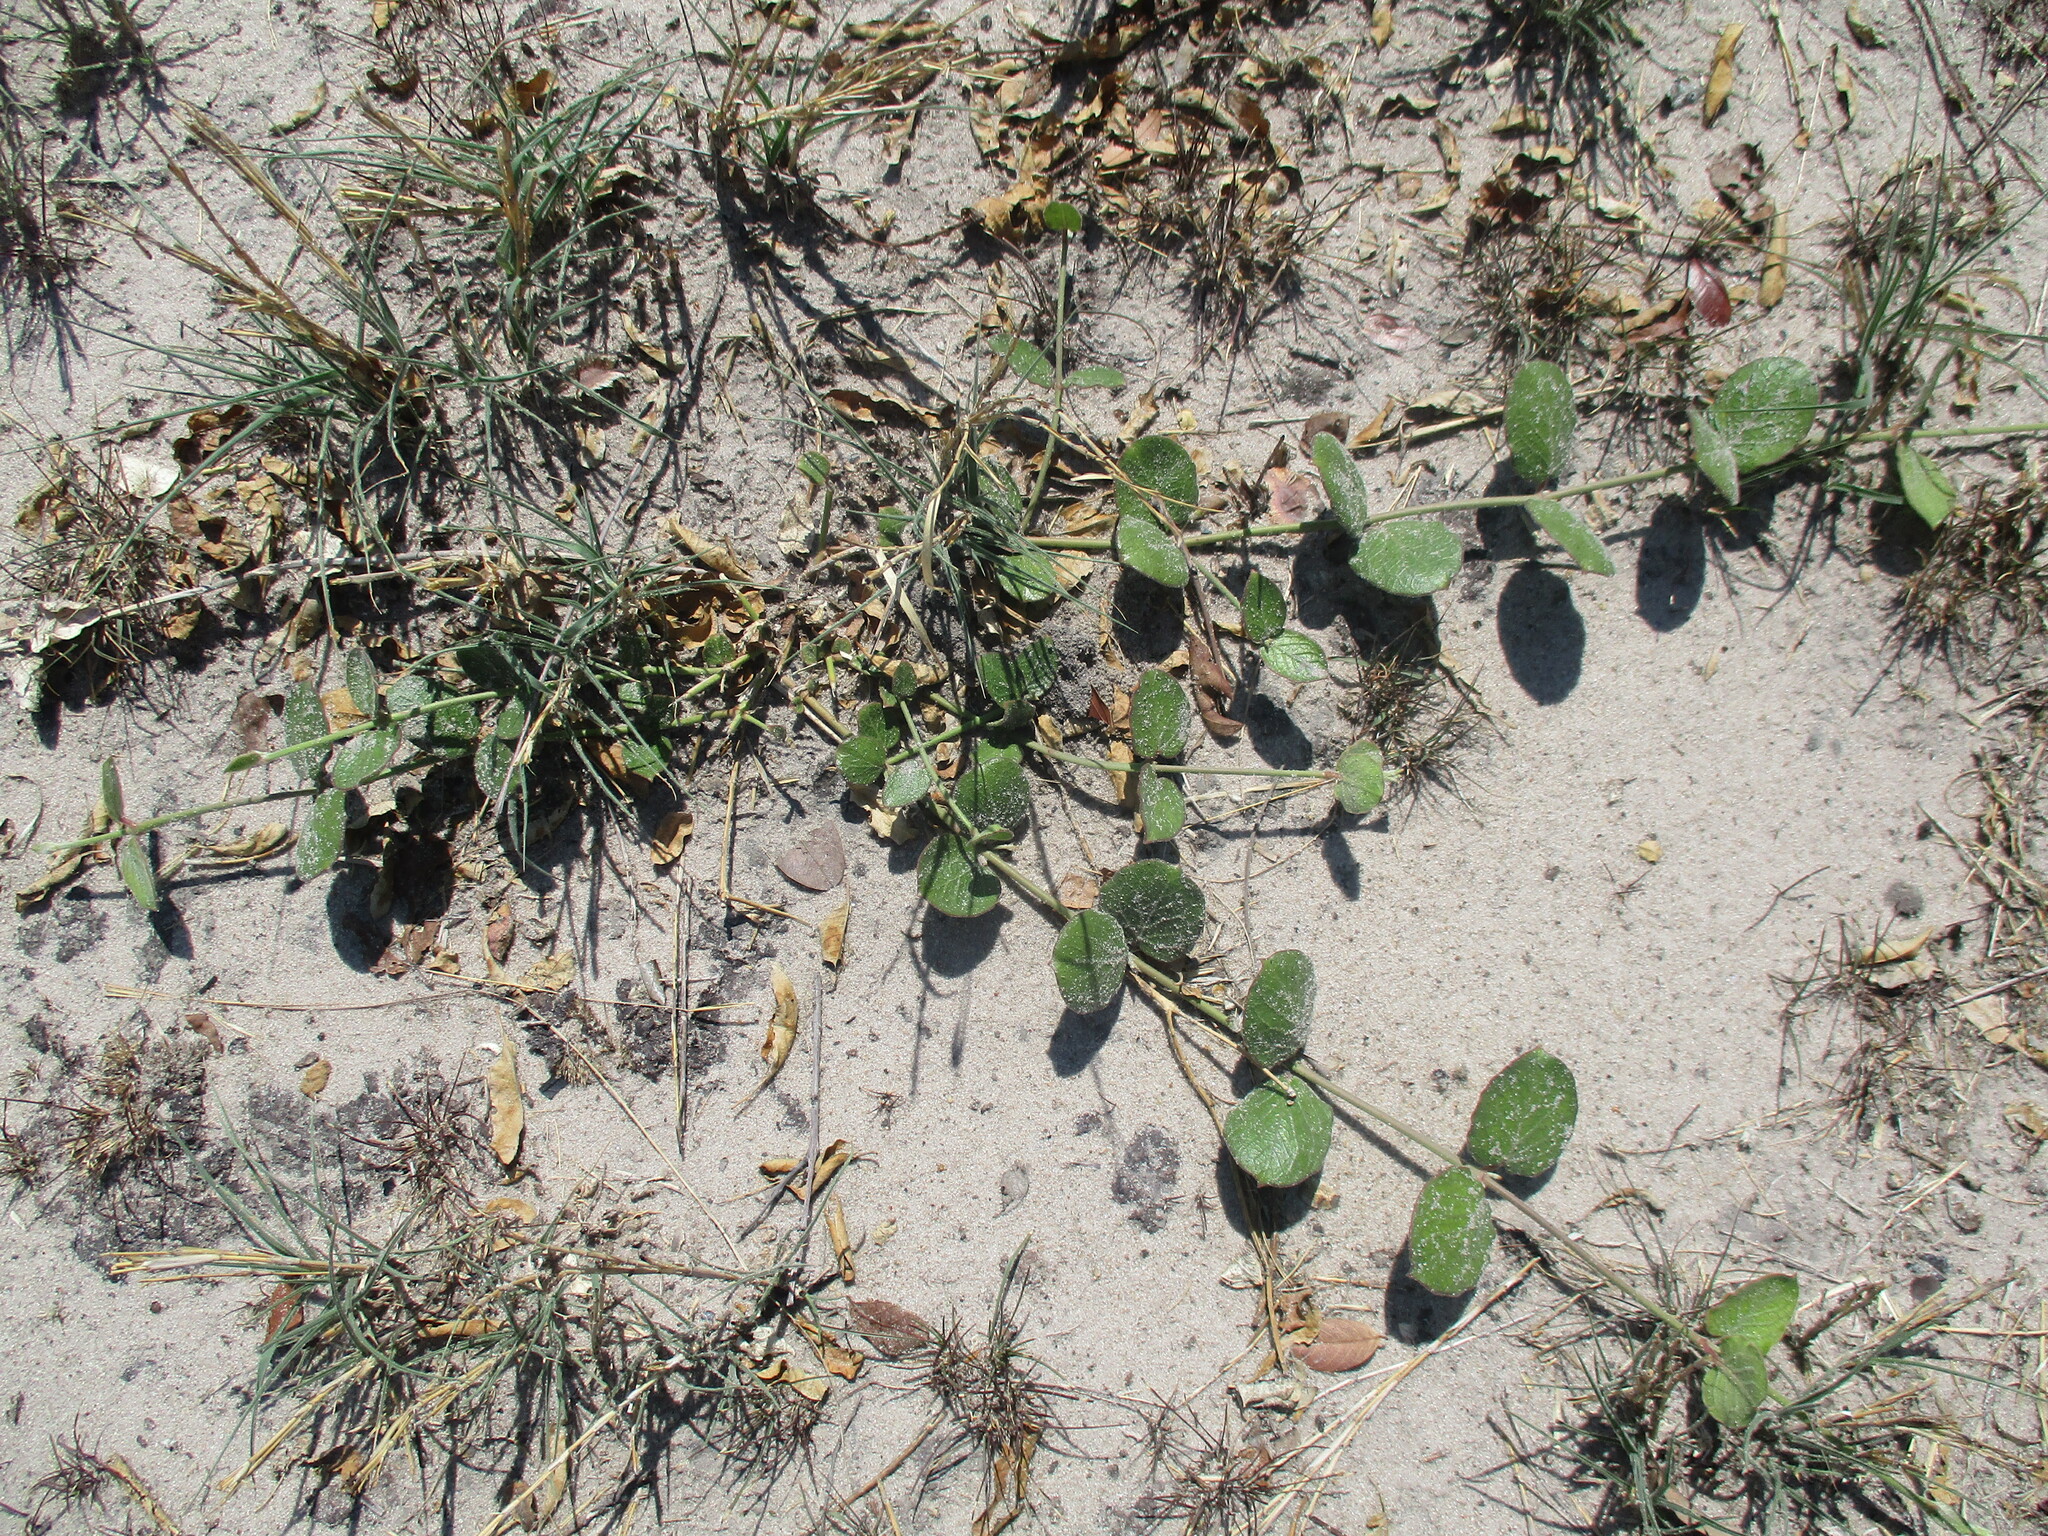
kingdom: Plantae
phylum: Tracheophyta
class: Magnoliopsida
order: Gentianales
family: Apocynaceae
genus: Orthanthera
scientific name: Orthanthera jasminiflora
